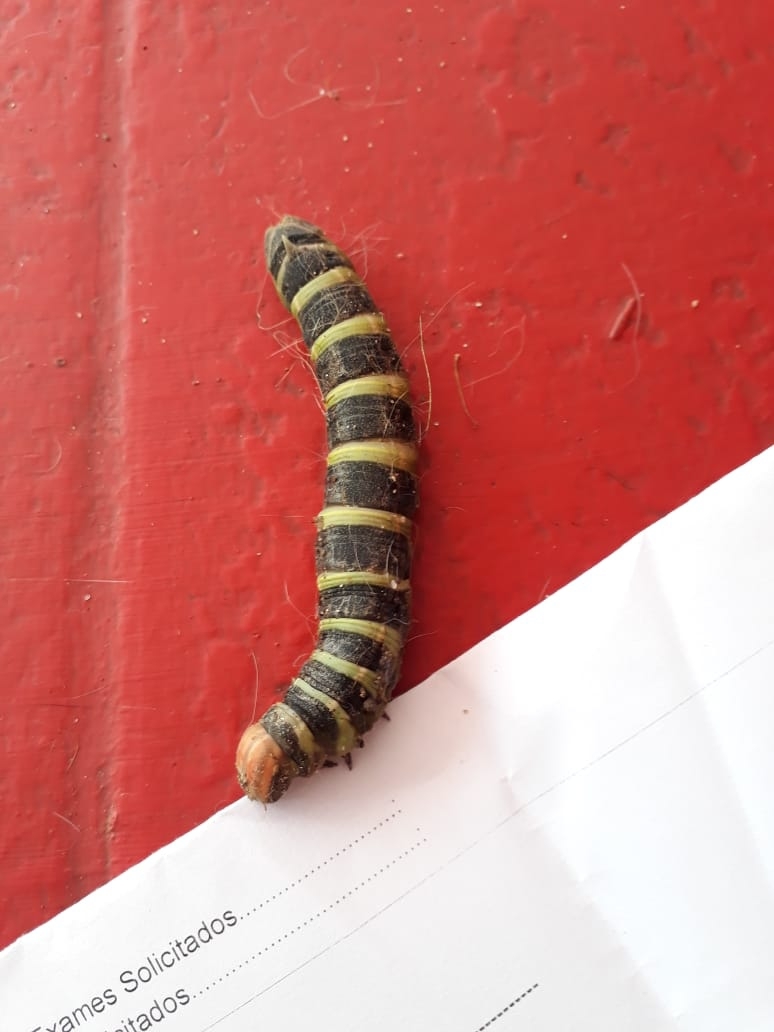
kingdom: Animalia
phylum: Arthropoda
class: Insecta
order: Lepidoptera
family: Sphingidae
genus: Pachylia
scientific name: Pachylia syces
